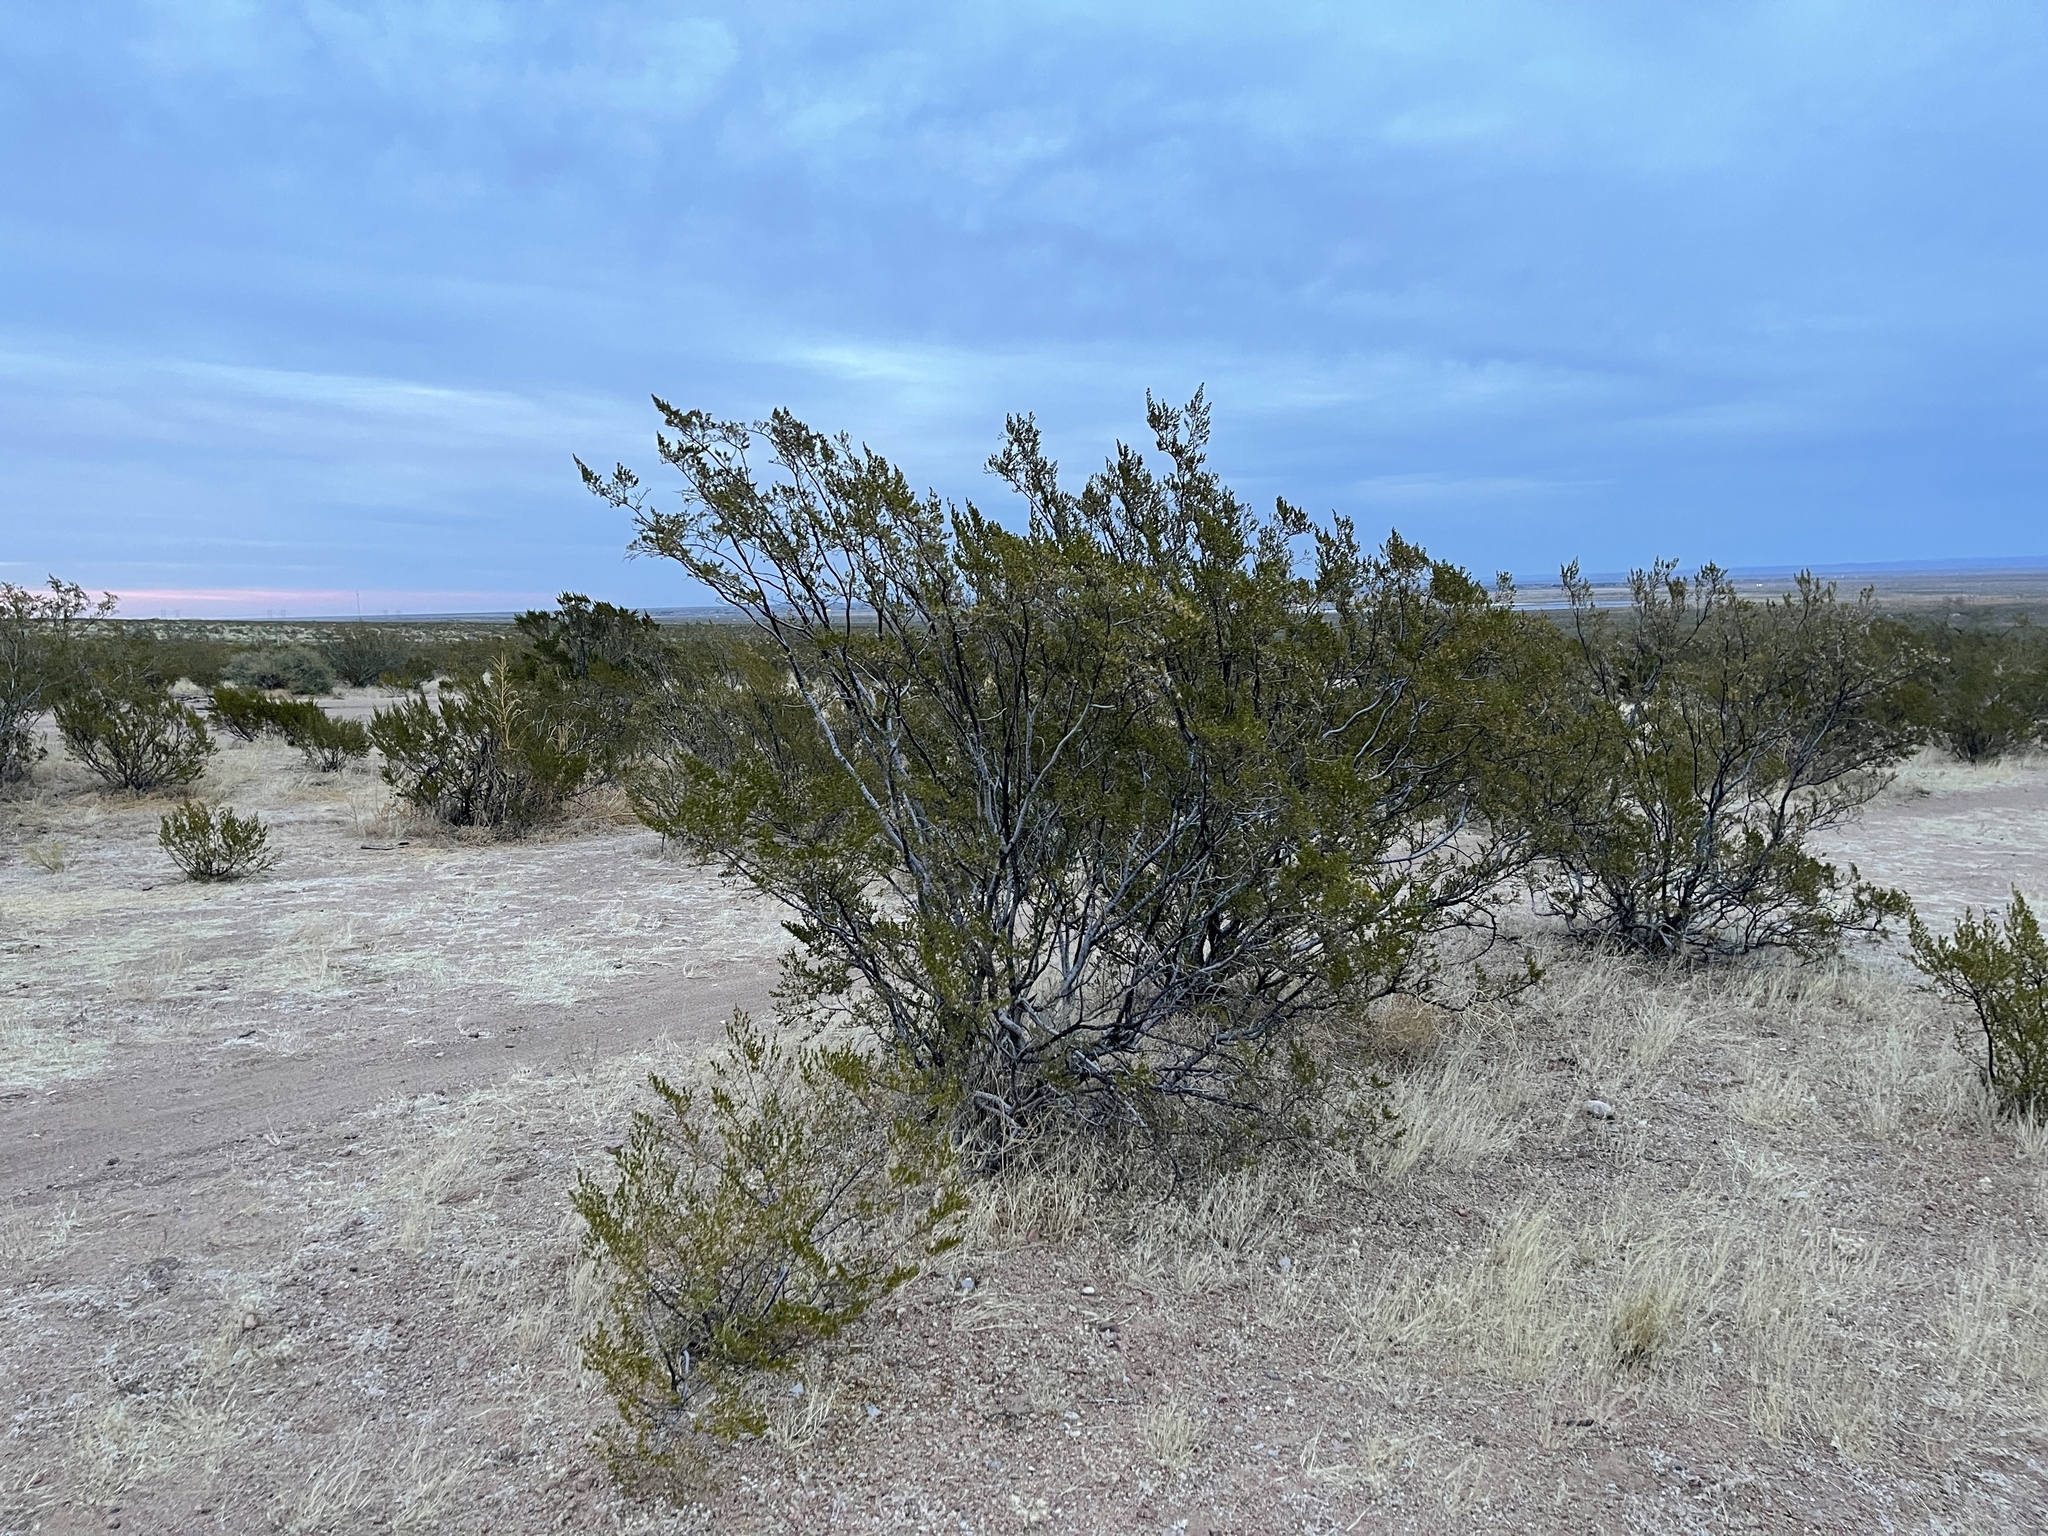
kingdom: Plantae
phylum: Tracheophyta
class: Magnoliopsida
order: Zygophyllales
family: Zygophyllaceae
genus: Larrea
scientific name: Larrea tridentata
